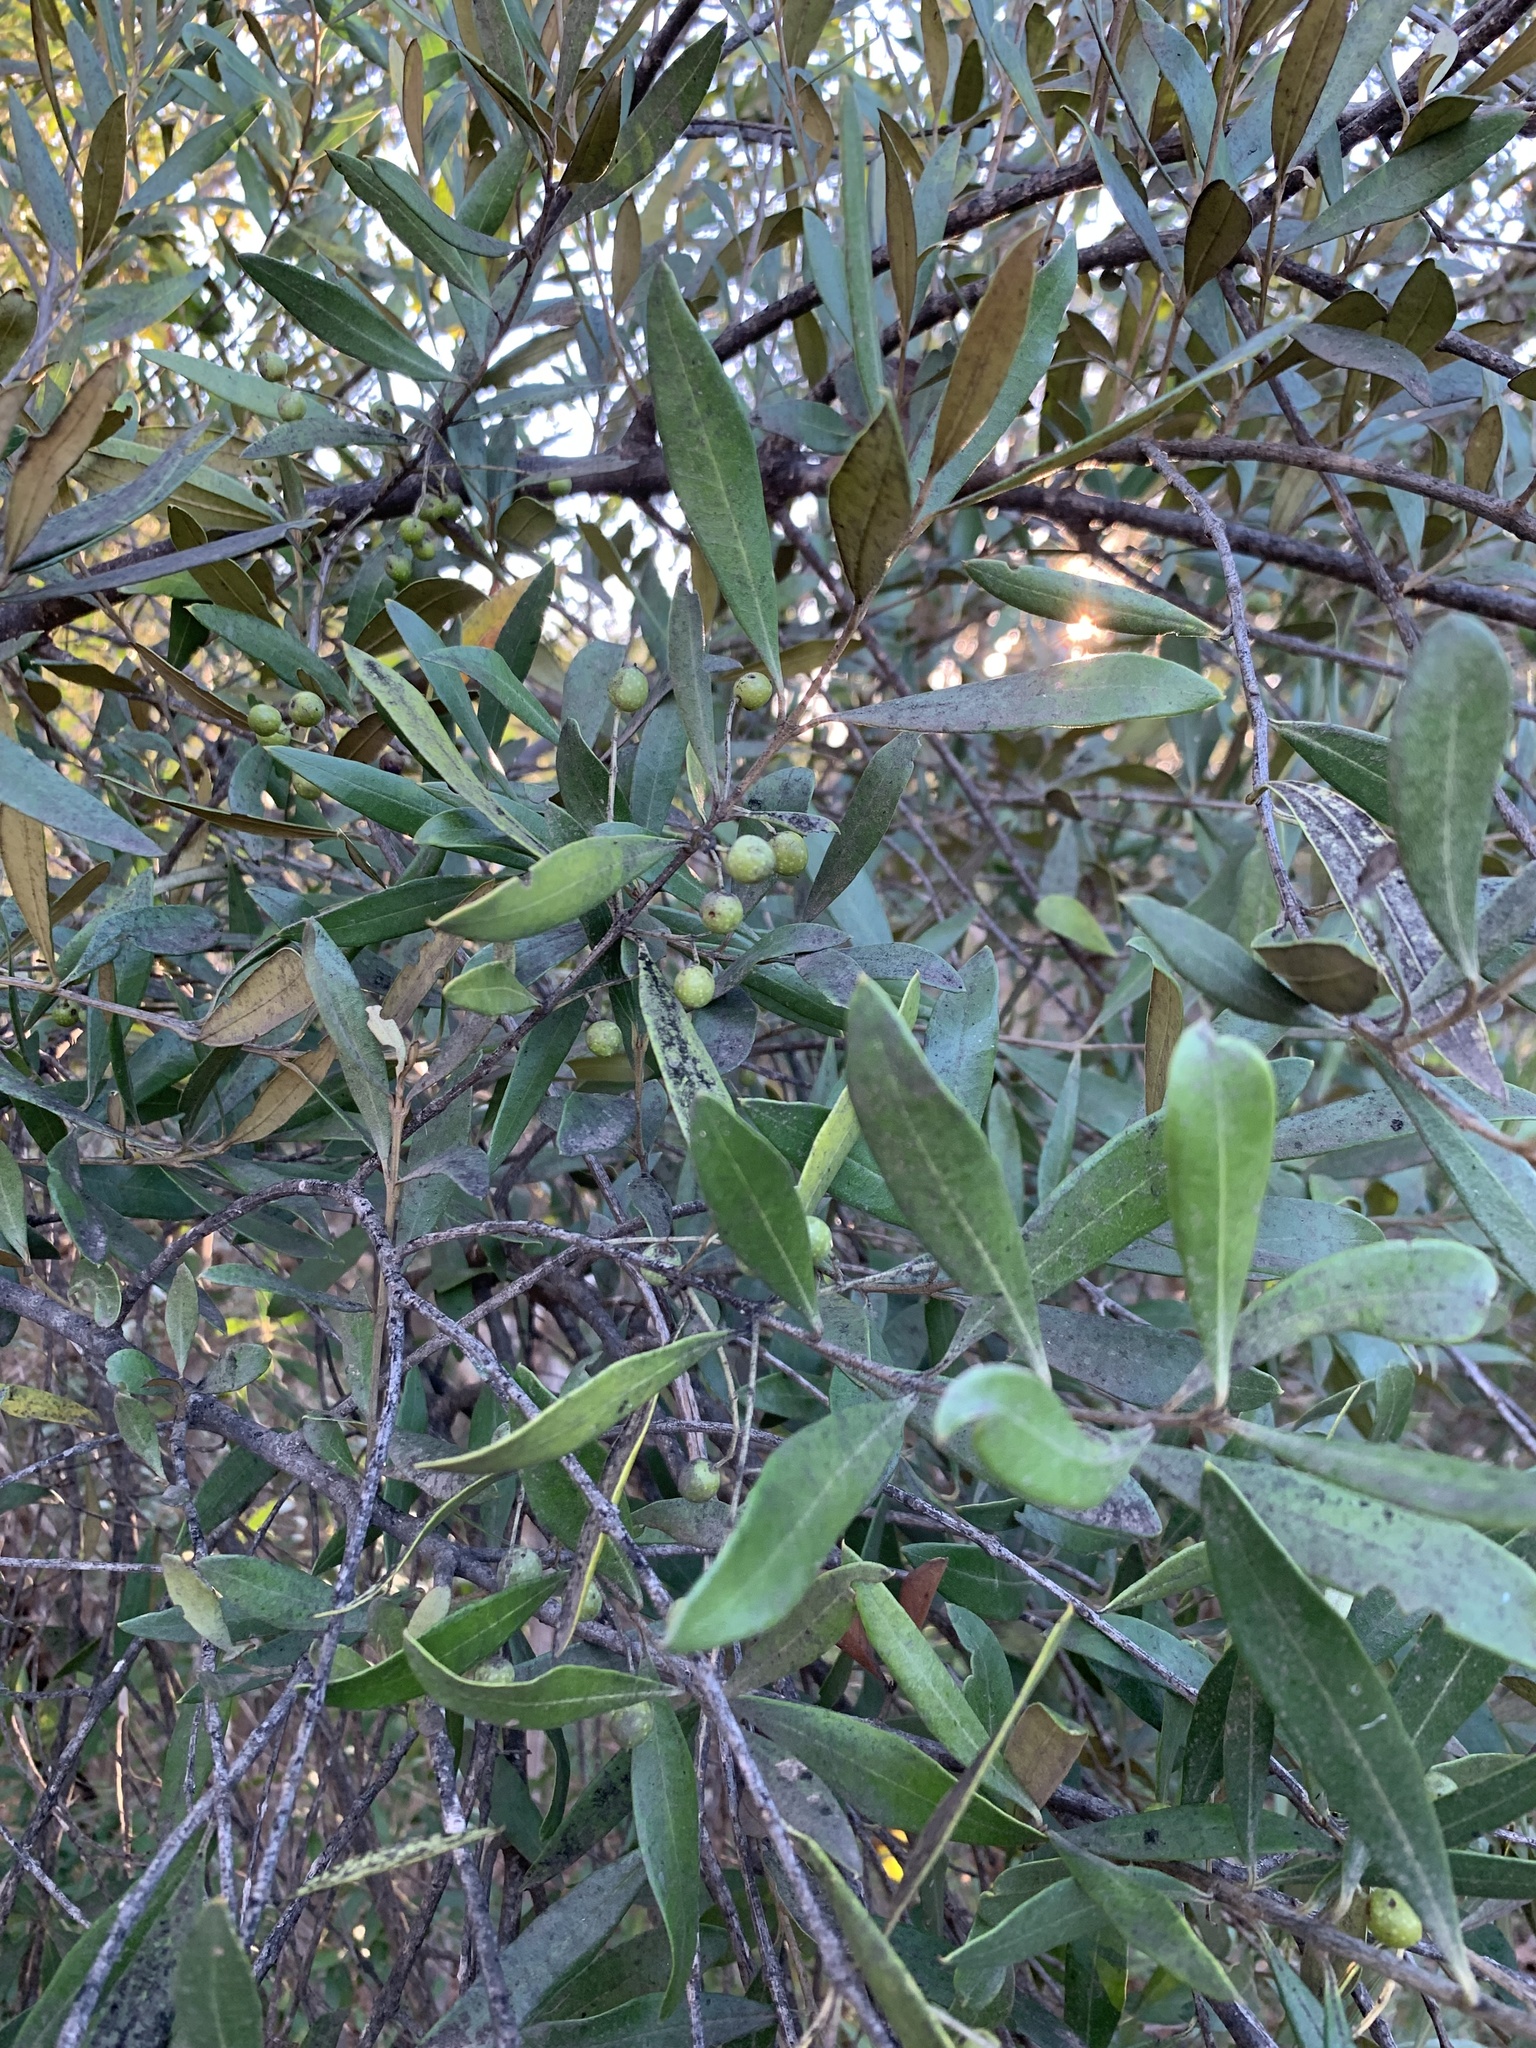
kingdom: Plantae
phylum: Tracheophyta
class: Magnoliopsida
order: Lamiales
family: Oleaceae
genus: Olea
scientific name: Olea europaea
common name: Olive
